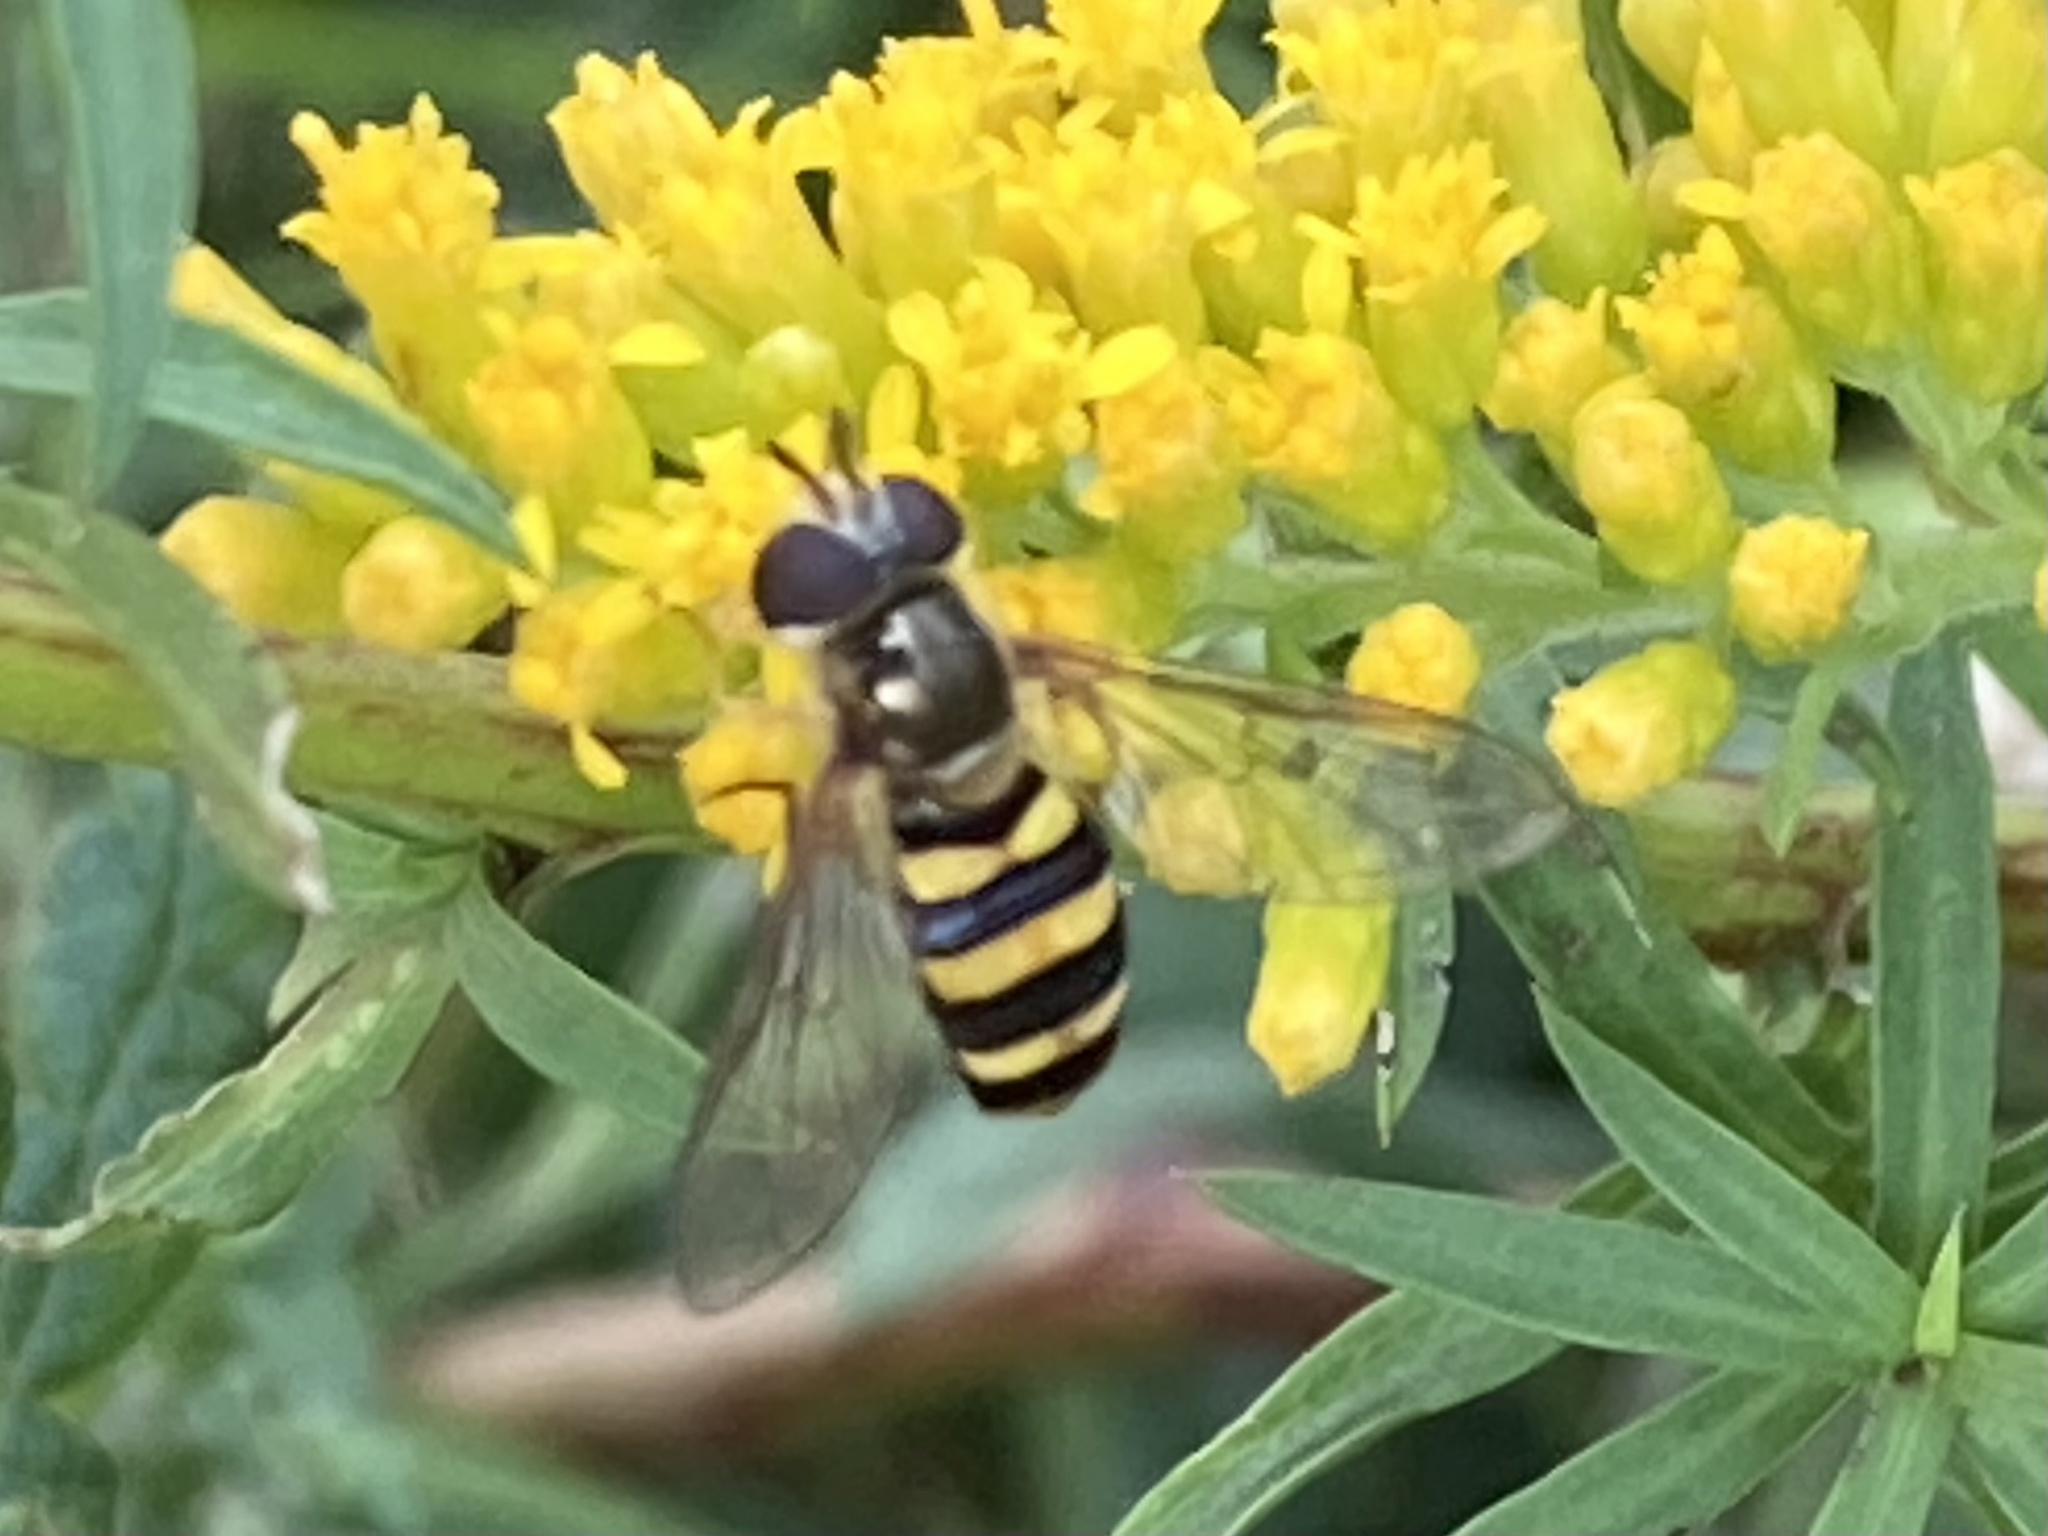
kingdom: Animalia
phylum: Arthropoda
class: Insecta
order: Diptera
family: Syrphidae
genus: Eupeodes
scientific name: Eupeodes
